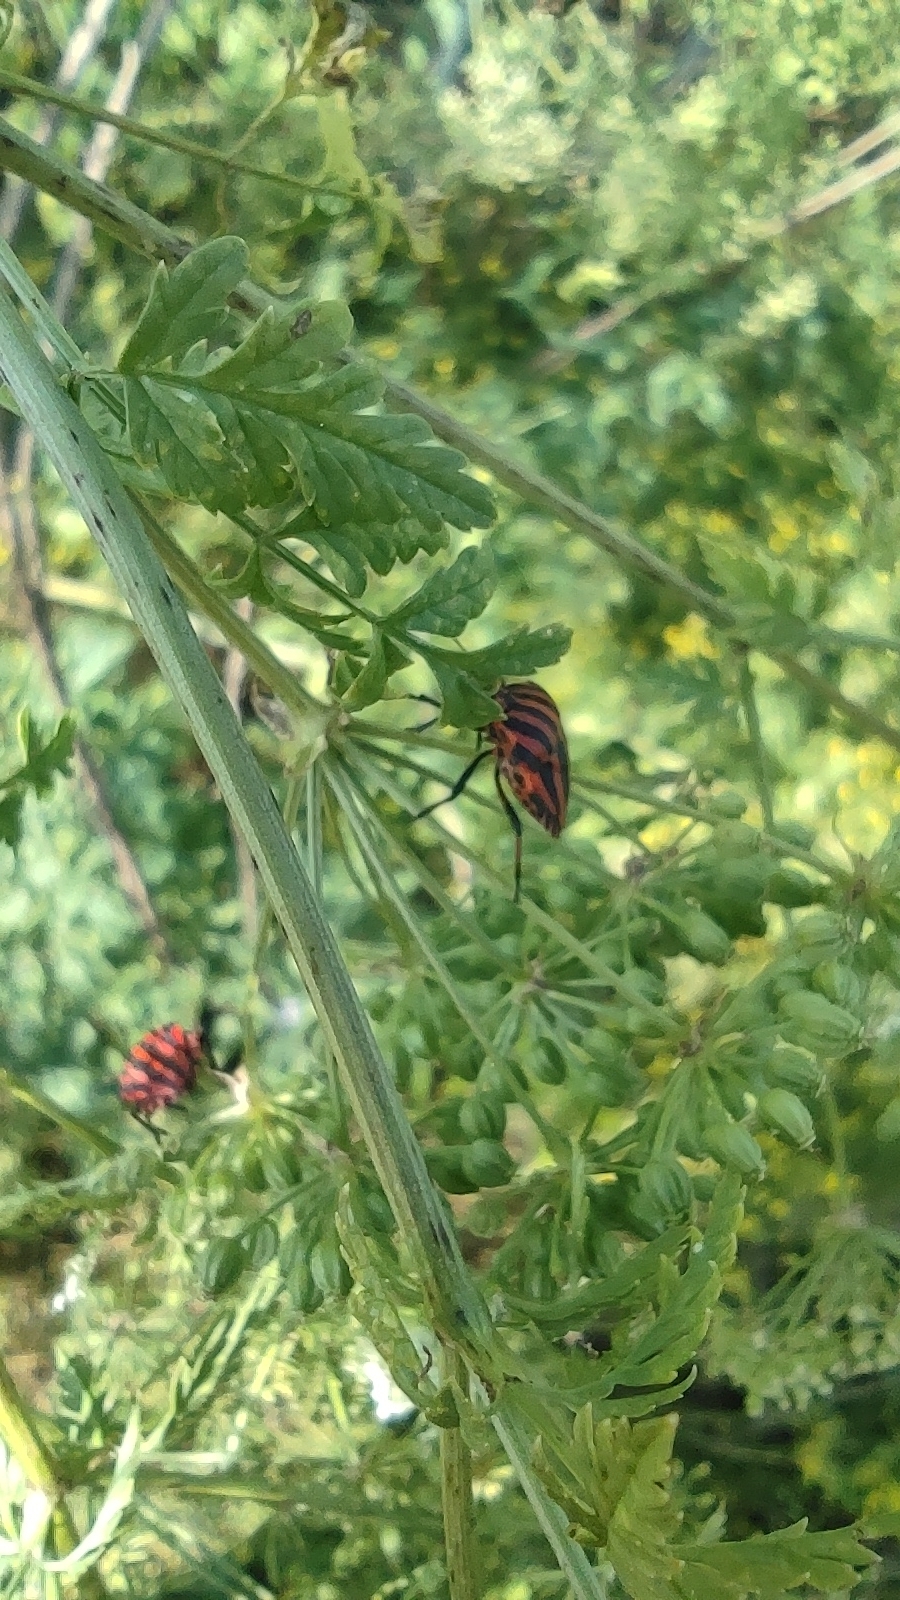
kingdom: Animalia
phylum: Arthropoda
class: Insecta
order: Hemiptera
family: Pentatomidae
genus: Graphosoma
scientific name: Graphosoma italicum
